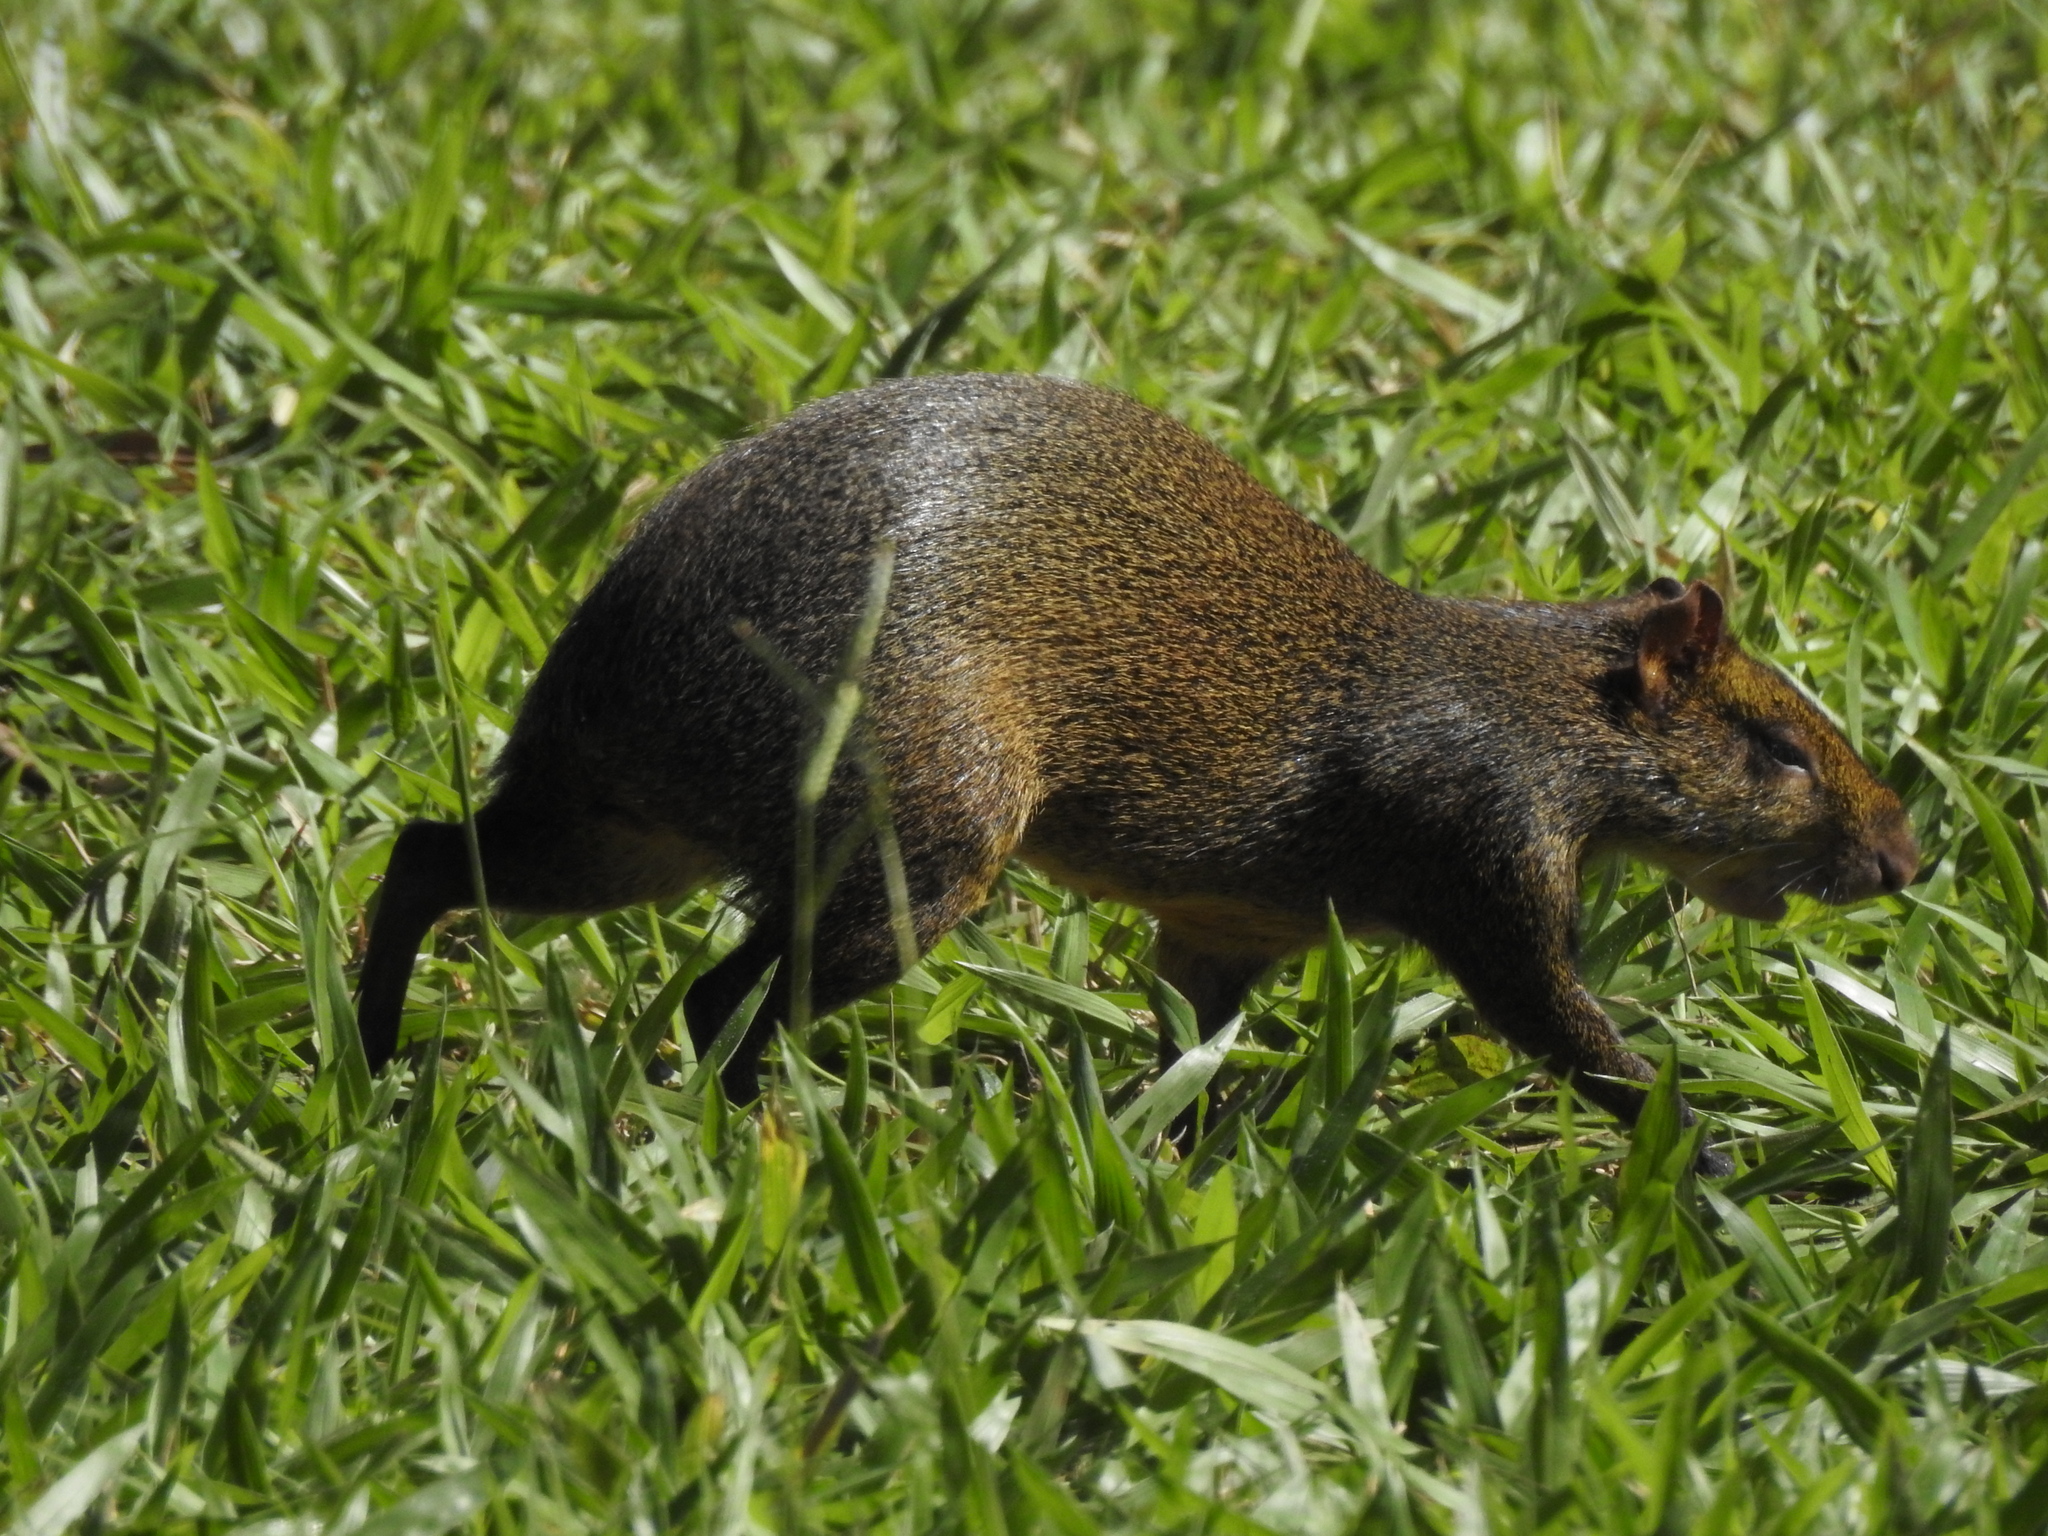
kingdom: Animalia
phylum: Chordata
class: Mammalia
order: Rodentia
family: Dasyproctidae
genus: Dasyprocta
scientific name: Dasyprocta azarae
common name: Azara's agouti
